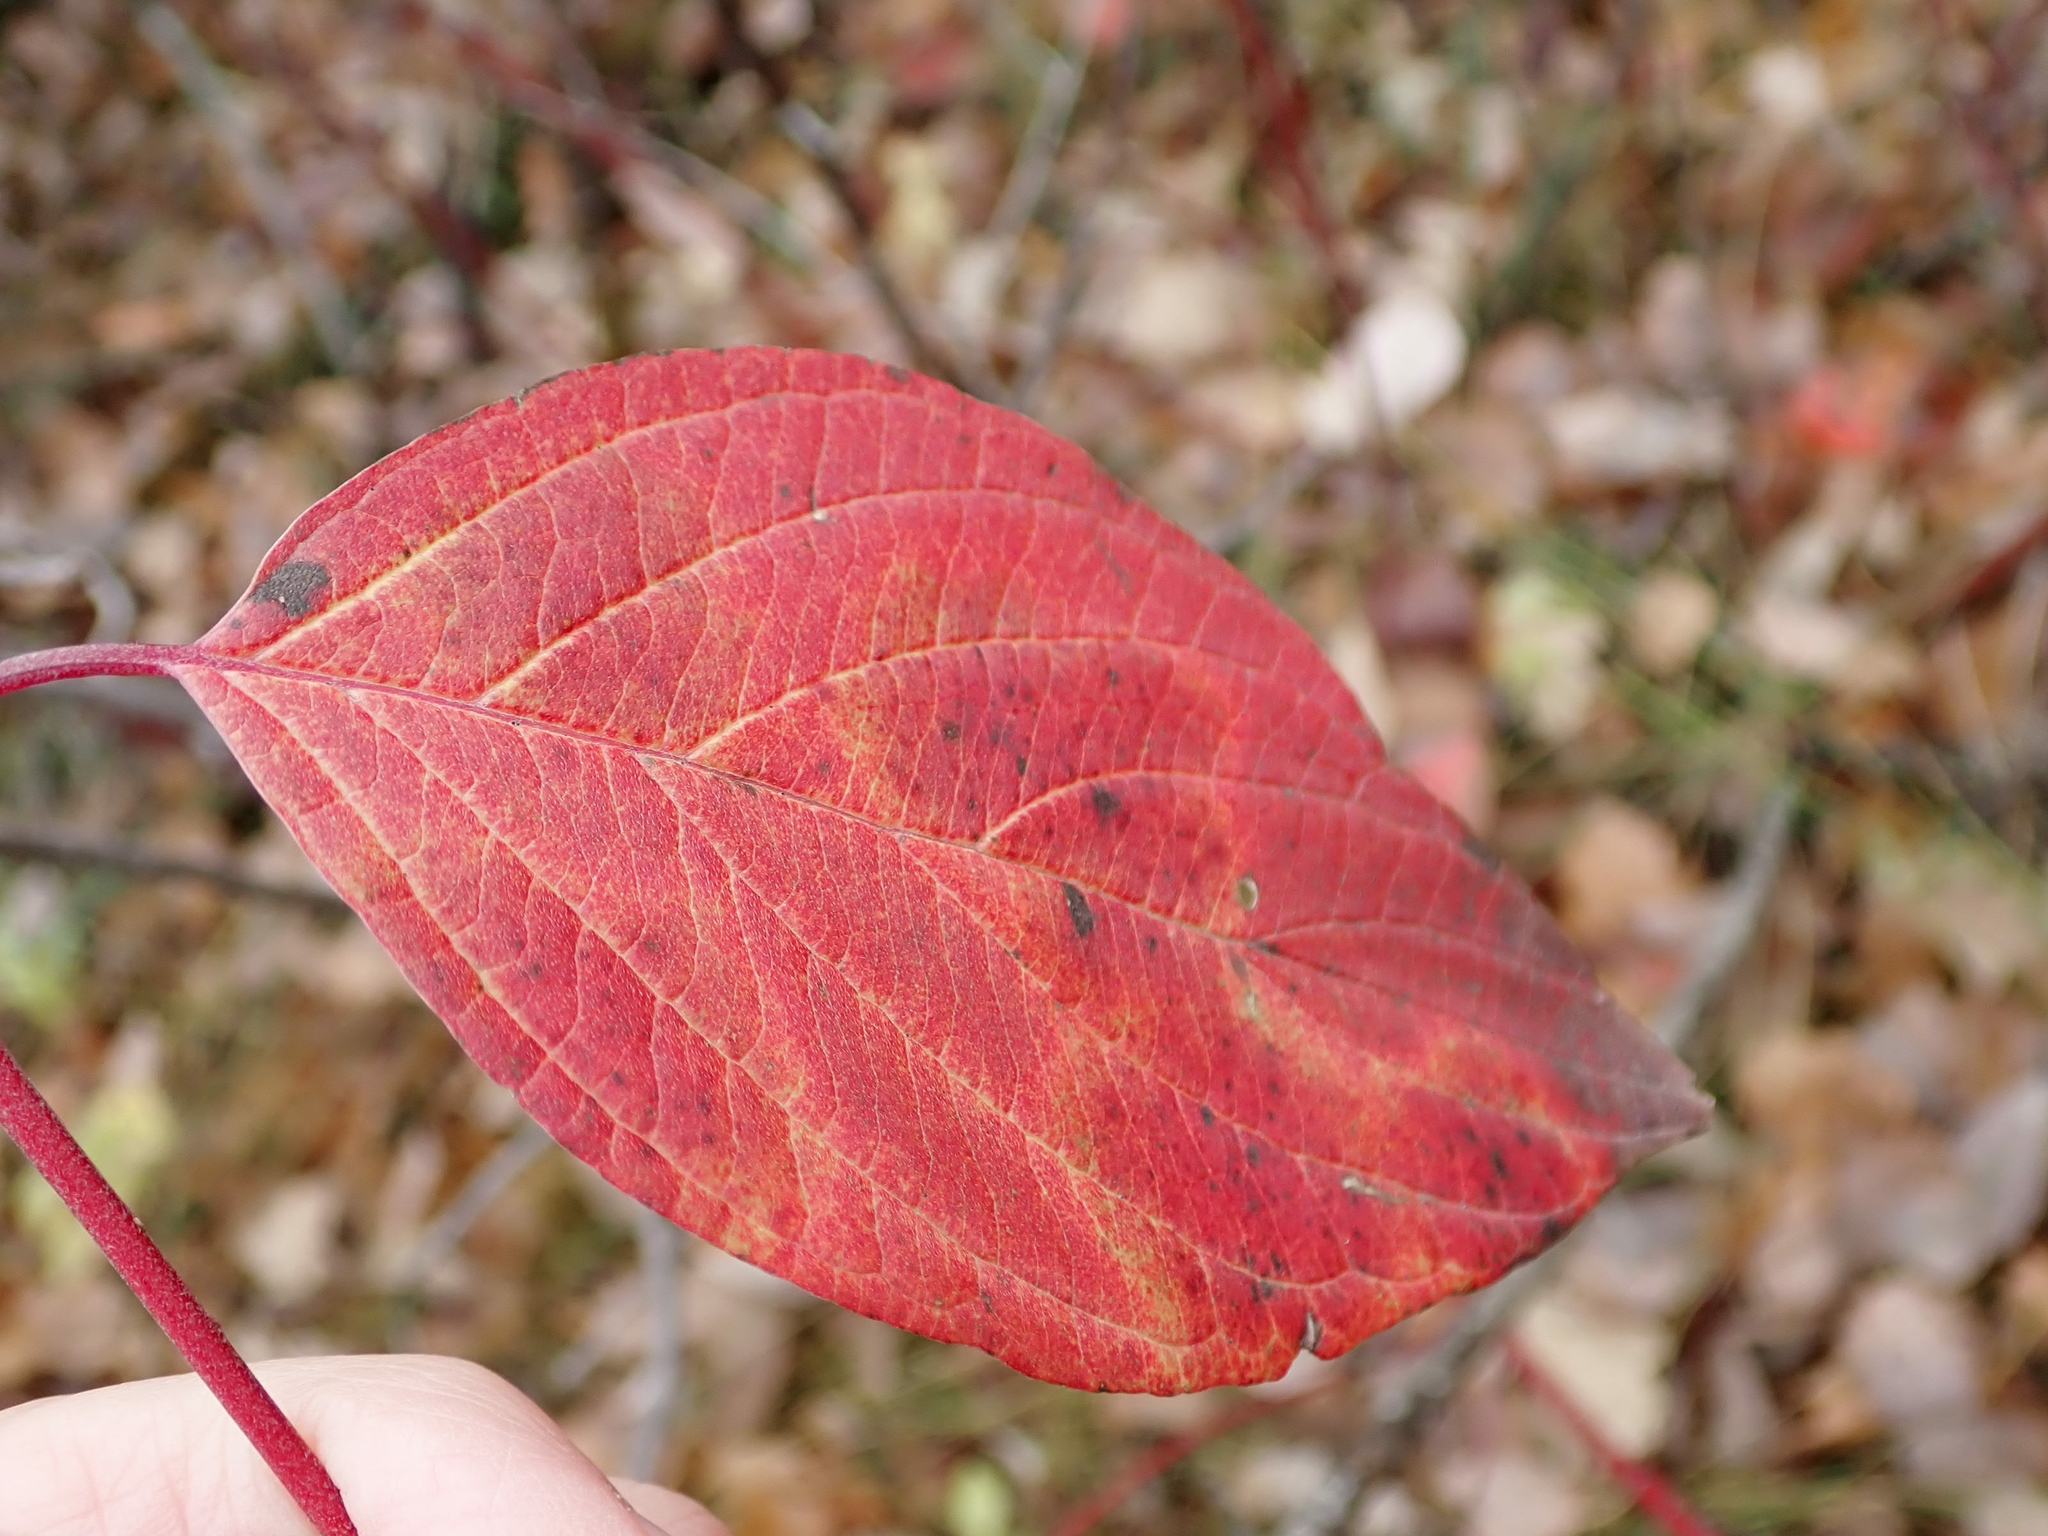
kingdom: Plantae
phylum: Tracheophyta
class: Magnoliopsida
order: Cornales
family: Cornaceae
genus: Cornus
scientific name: Cornus sericea
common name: Red-osier dogwood
